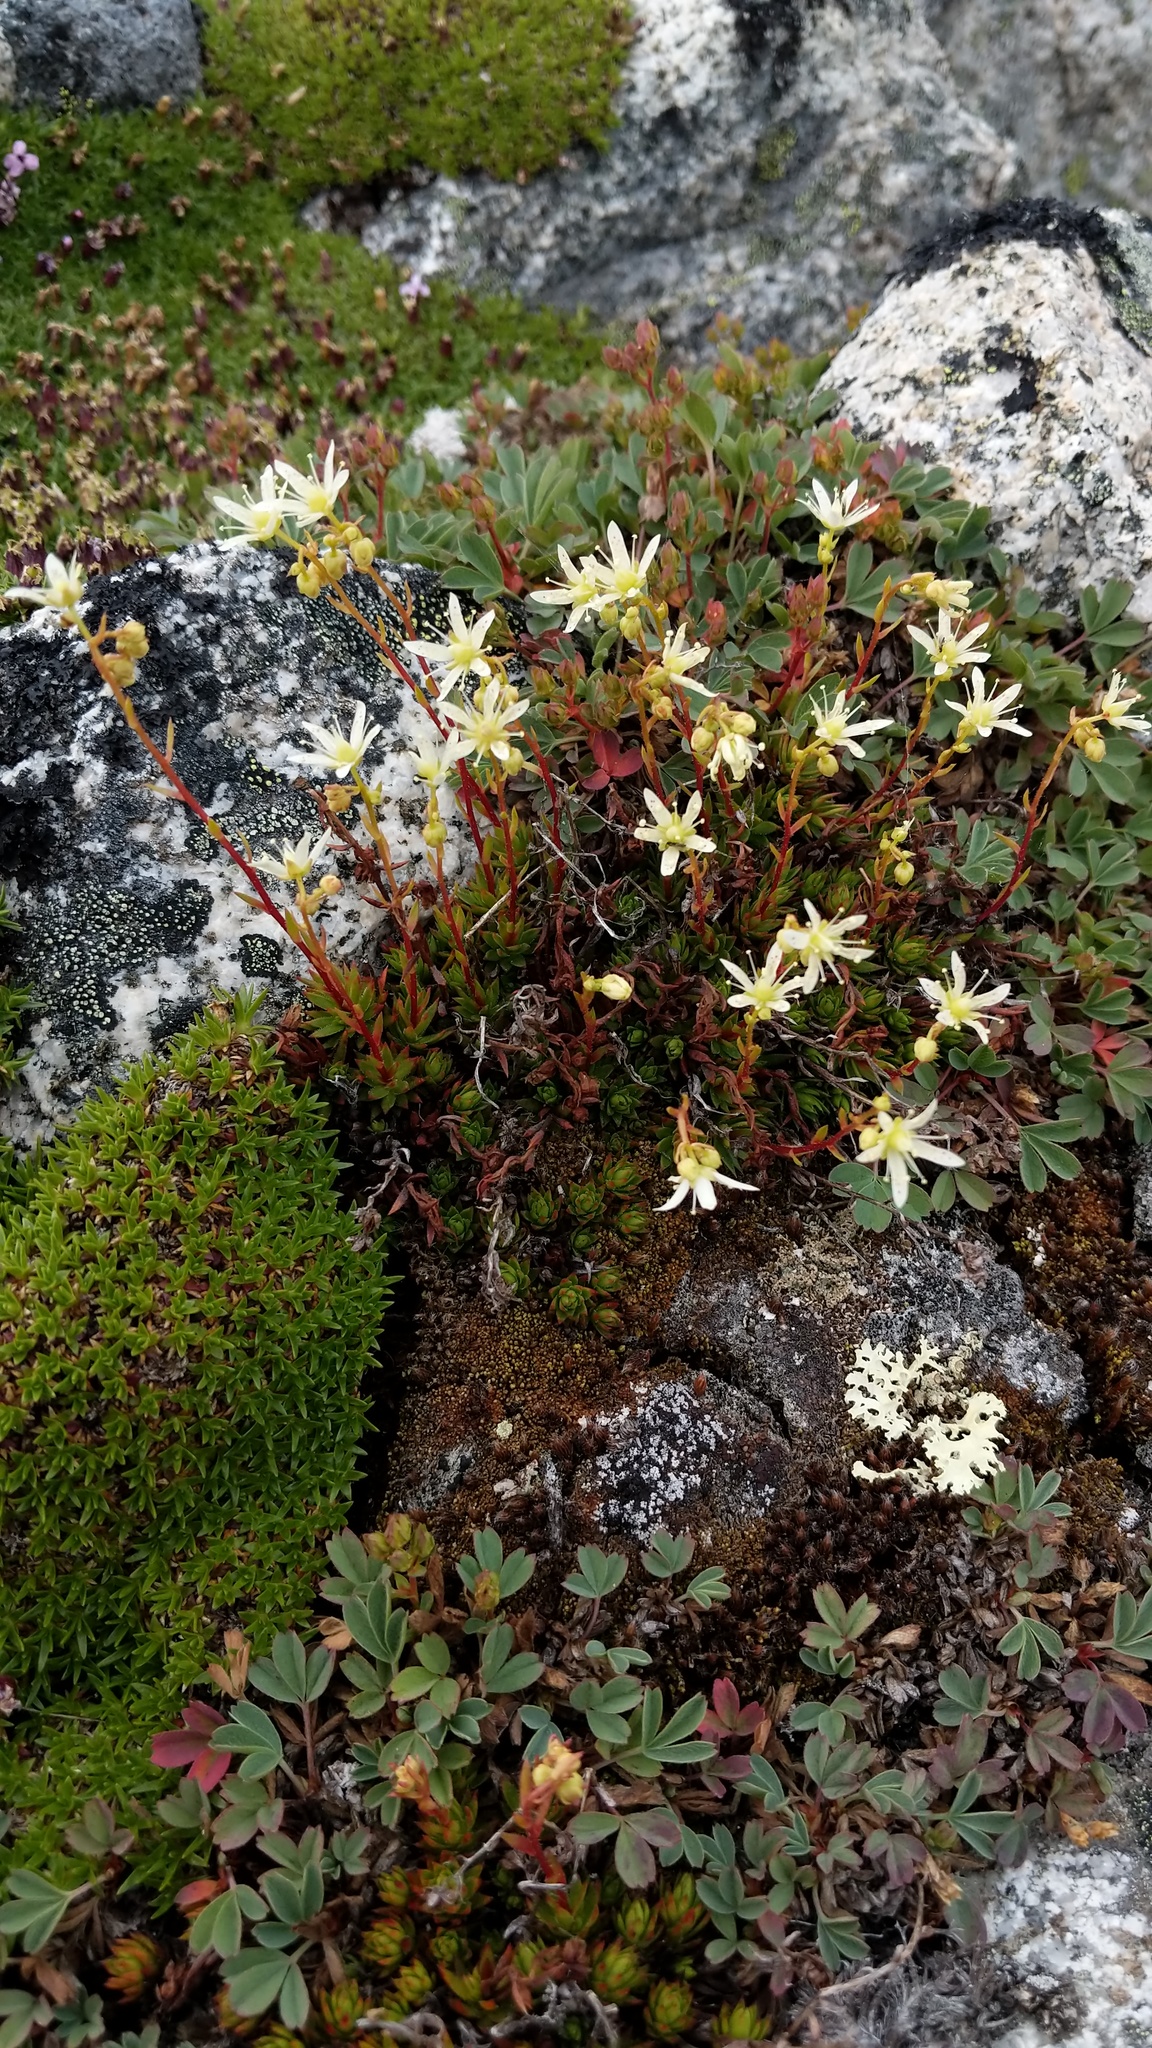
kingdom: Plantae
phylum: Tracheophyta
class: Magnoliopsida
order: Saxifragales
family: Saxifragaceae
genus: Saxifraga
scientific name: Saxifraga bronchialis
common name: Matted saxifrage
